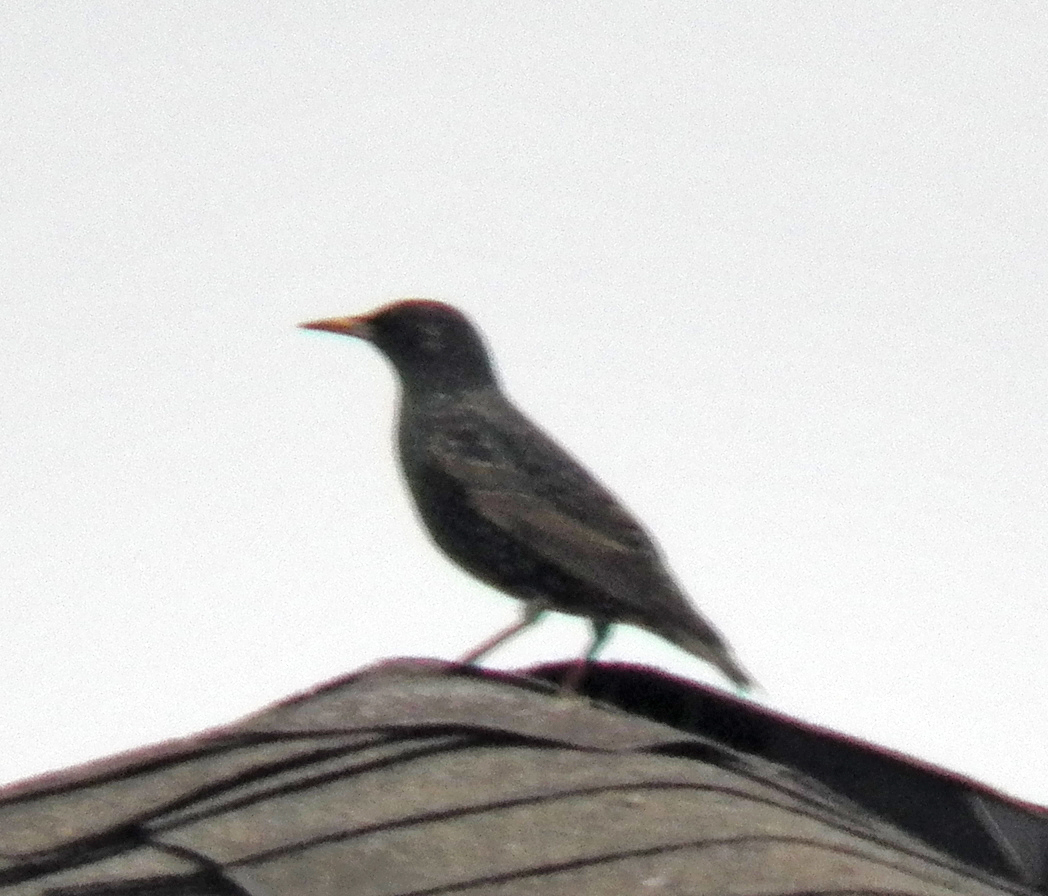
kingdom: Animalia
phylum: Chordata
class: Aves
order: Passeriformes
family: Sturnidae
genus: Sturnus
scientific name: Sturnus vulgaris
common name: Common starling
